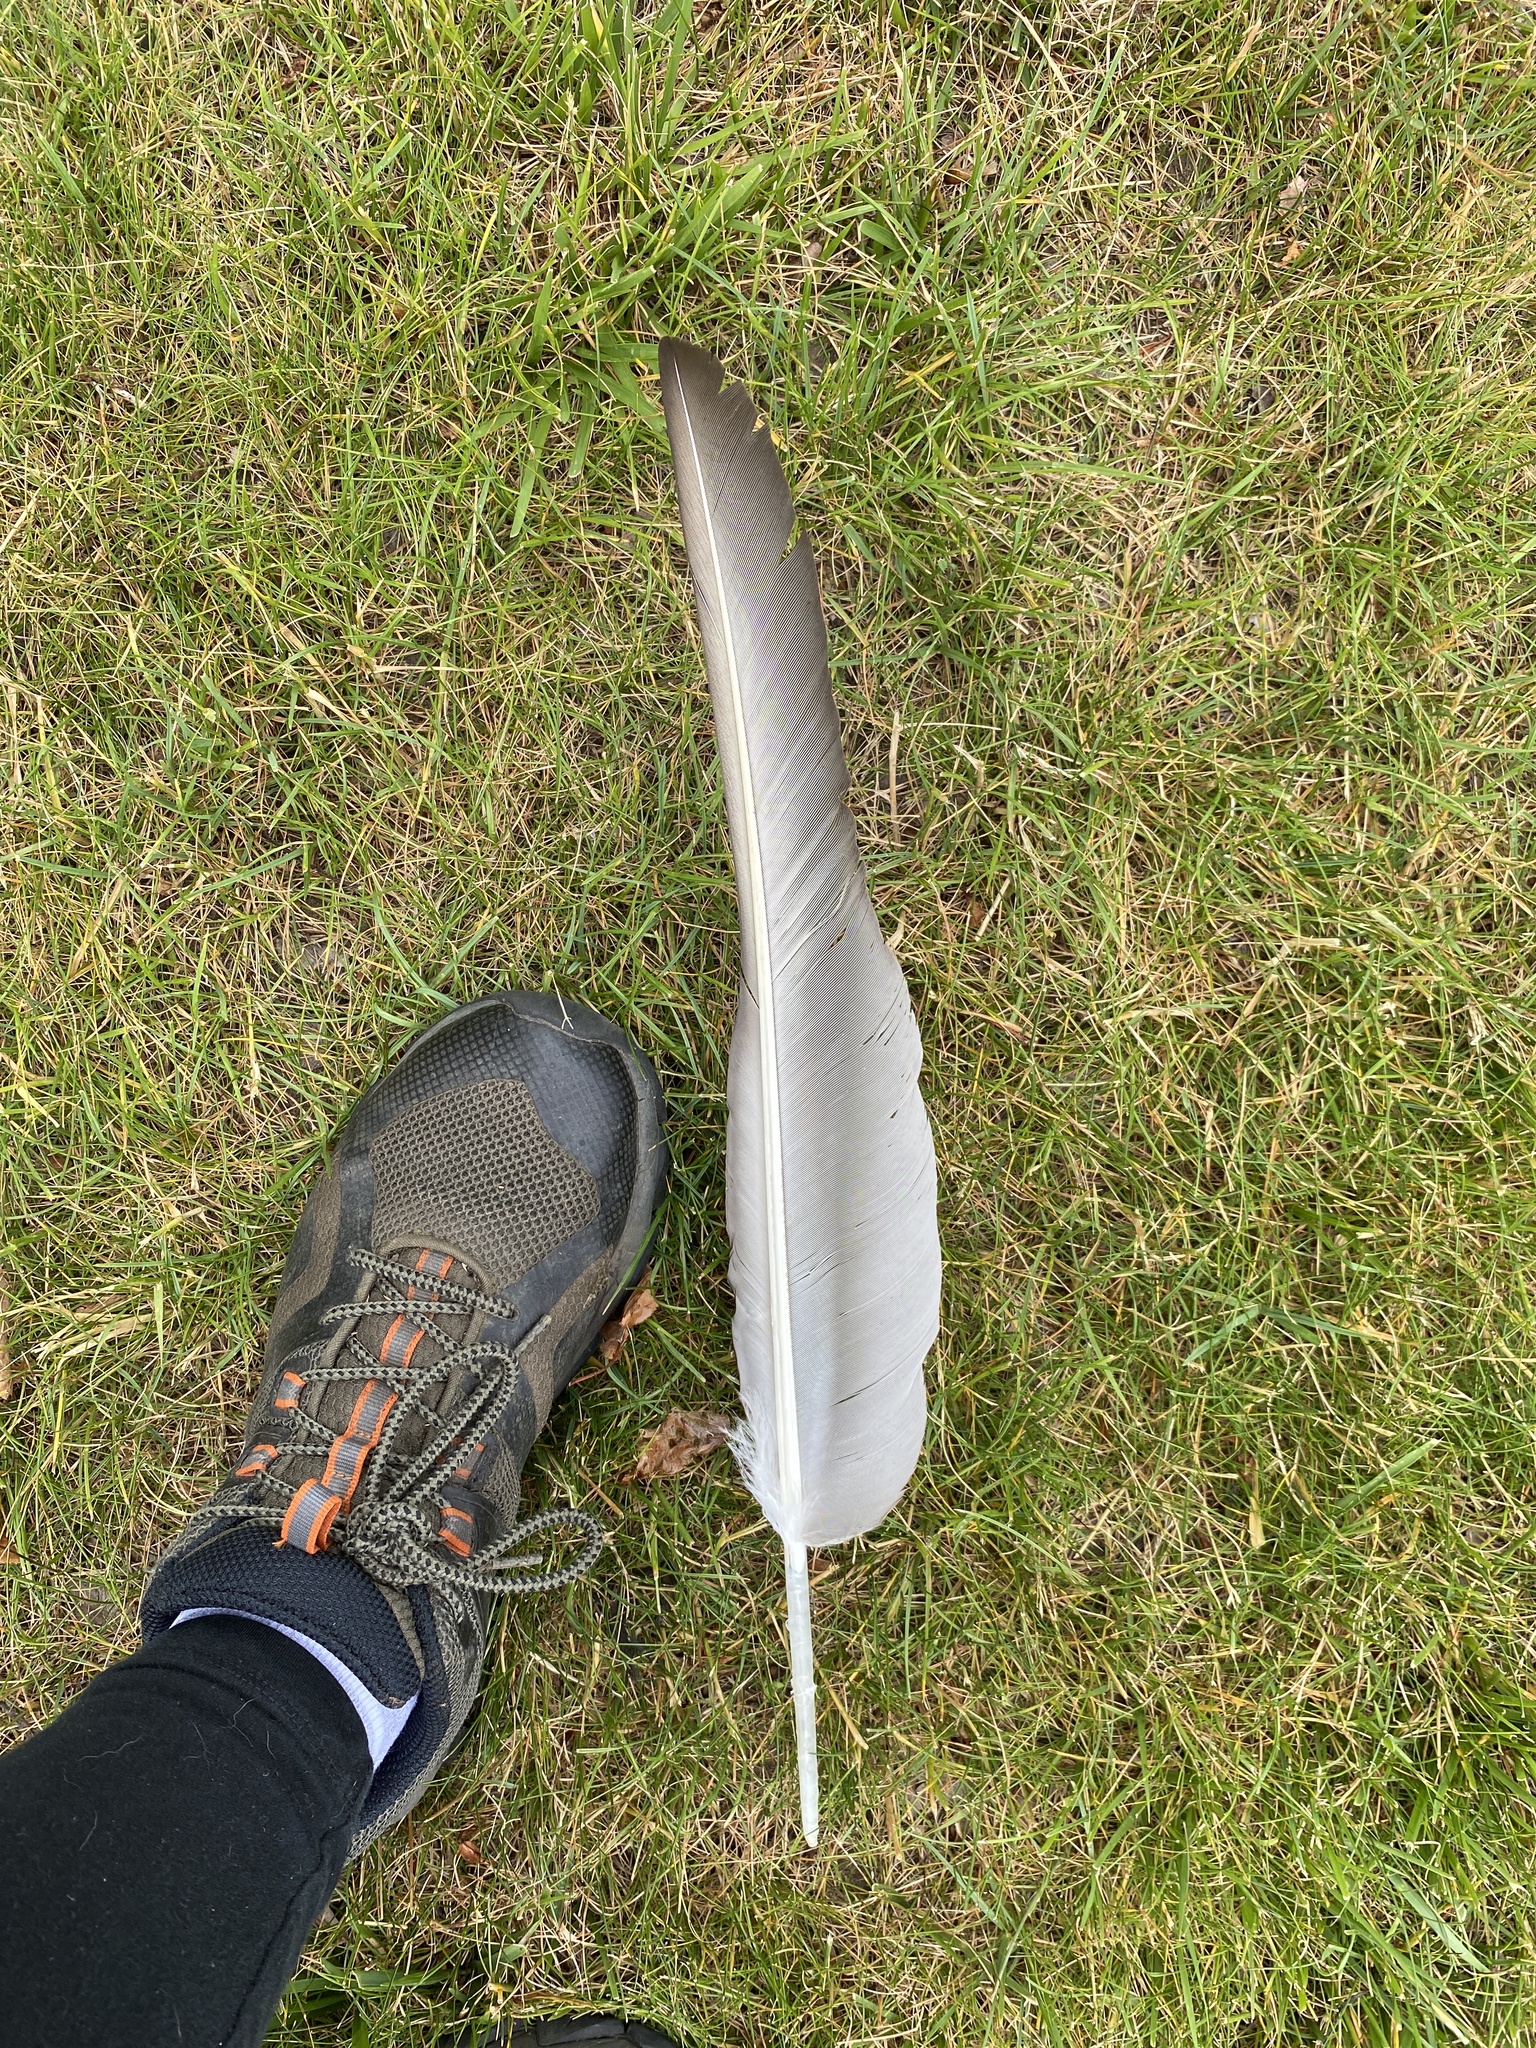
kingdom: Animalia
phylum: Chordata
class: Aves
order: Accipitriformes
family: Cathartidae
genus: Cathartes
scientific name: Cathartes aura
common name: Turkey vulture
